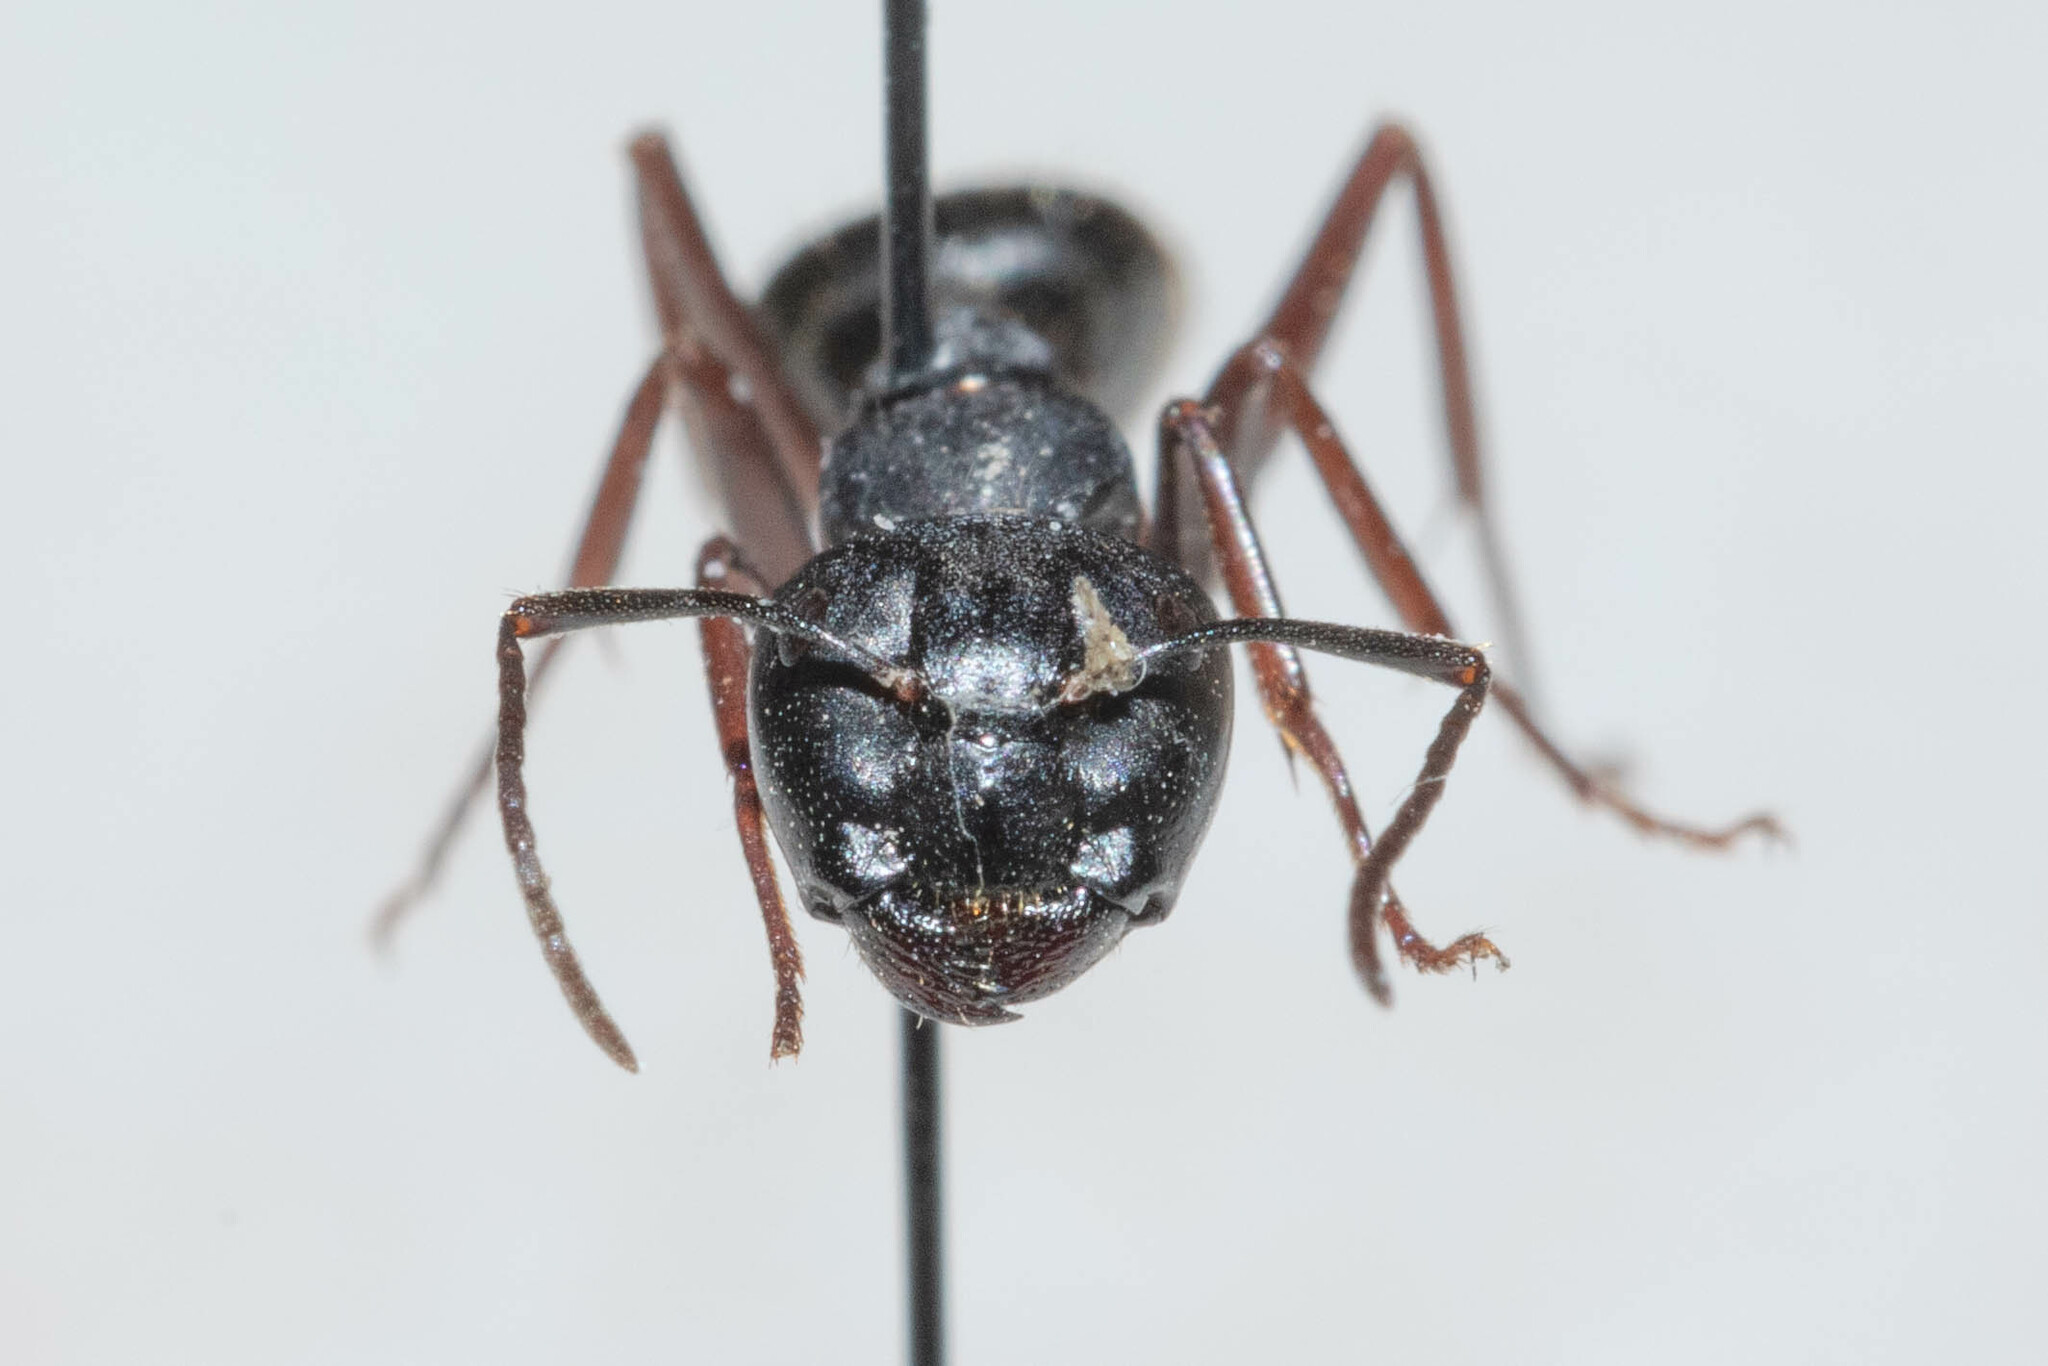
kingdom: Animalia
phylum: Arthropoda
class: Insecta
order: Hymenoptera
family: Formicidae
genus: Camponotus
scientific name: Camponotus herculeanus
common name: Hercules ant
